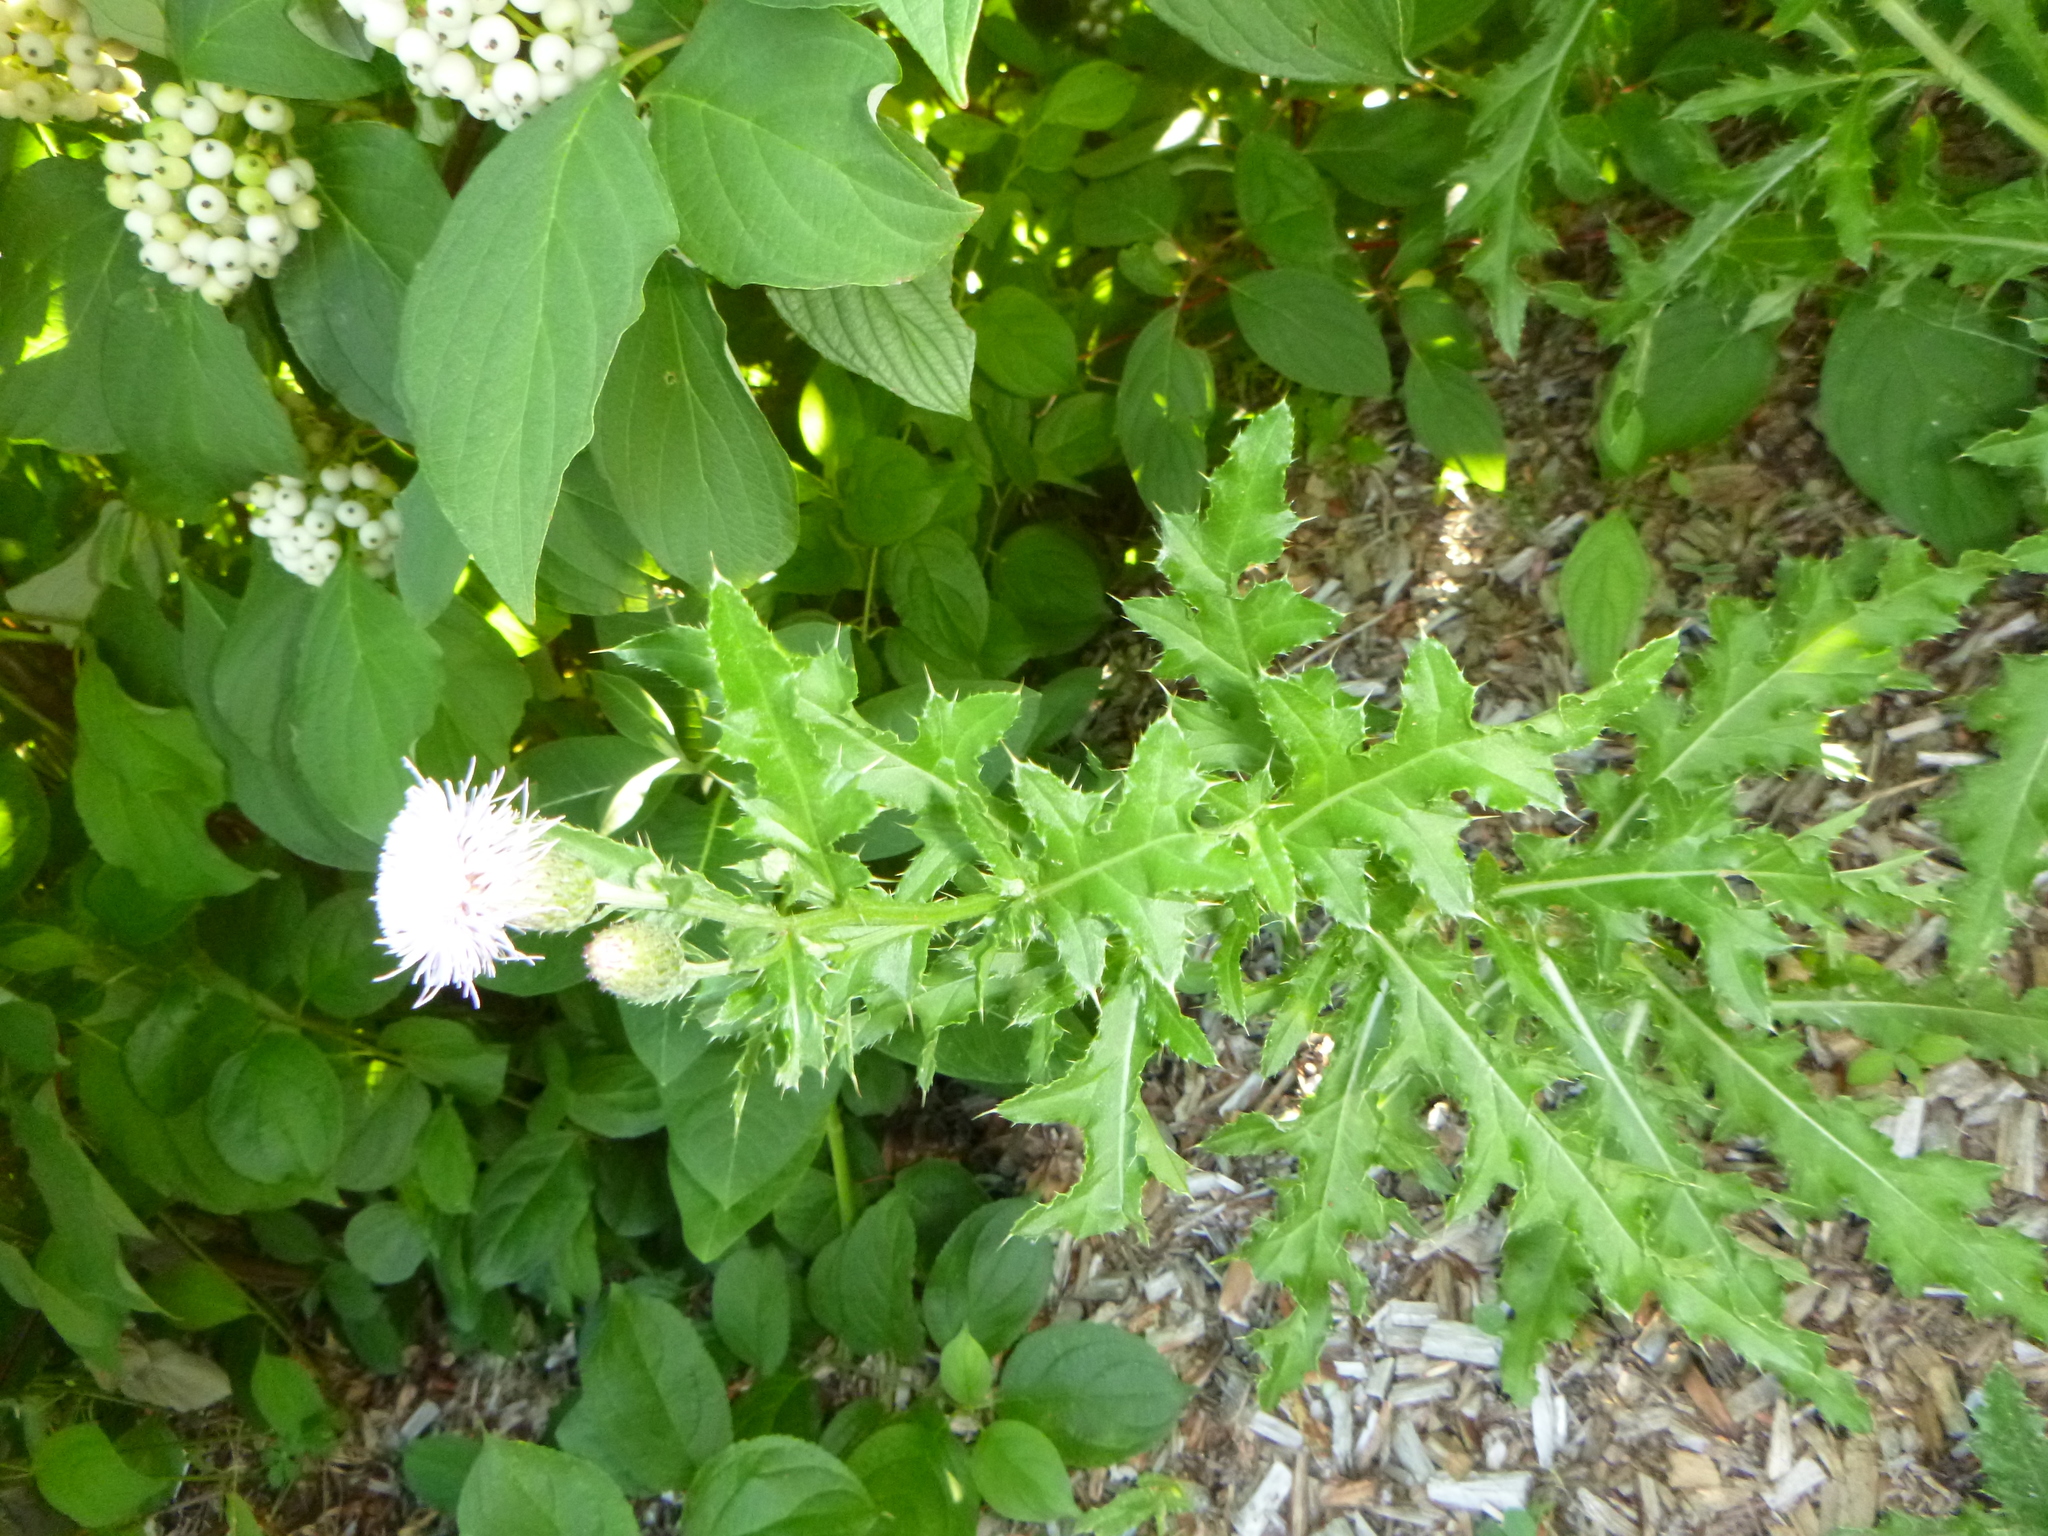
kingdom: Plantae
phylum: Tracheophyta
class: Magnoliopsida
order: Asterales
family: Asteraceae
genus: Cirsium
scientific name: Cirsium arvense
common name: Creeping thistle
